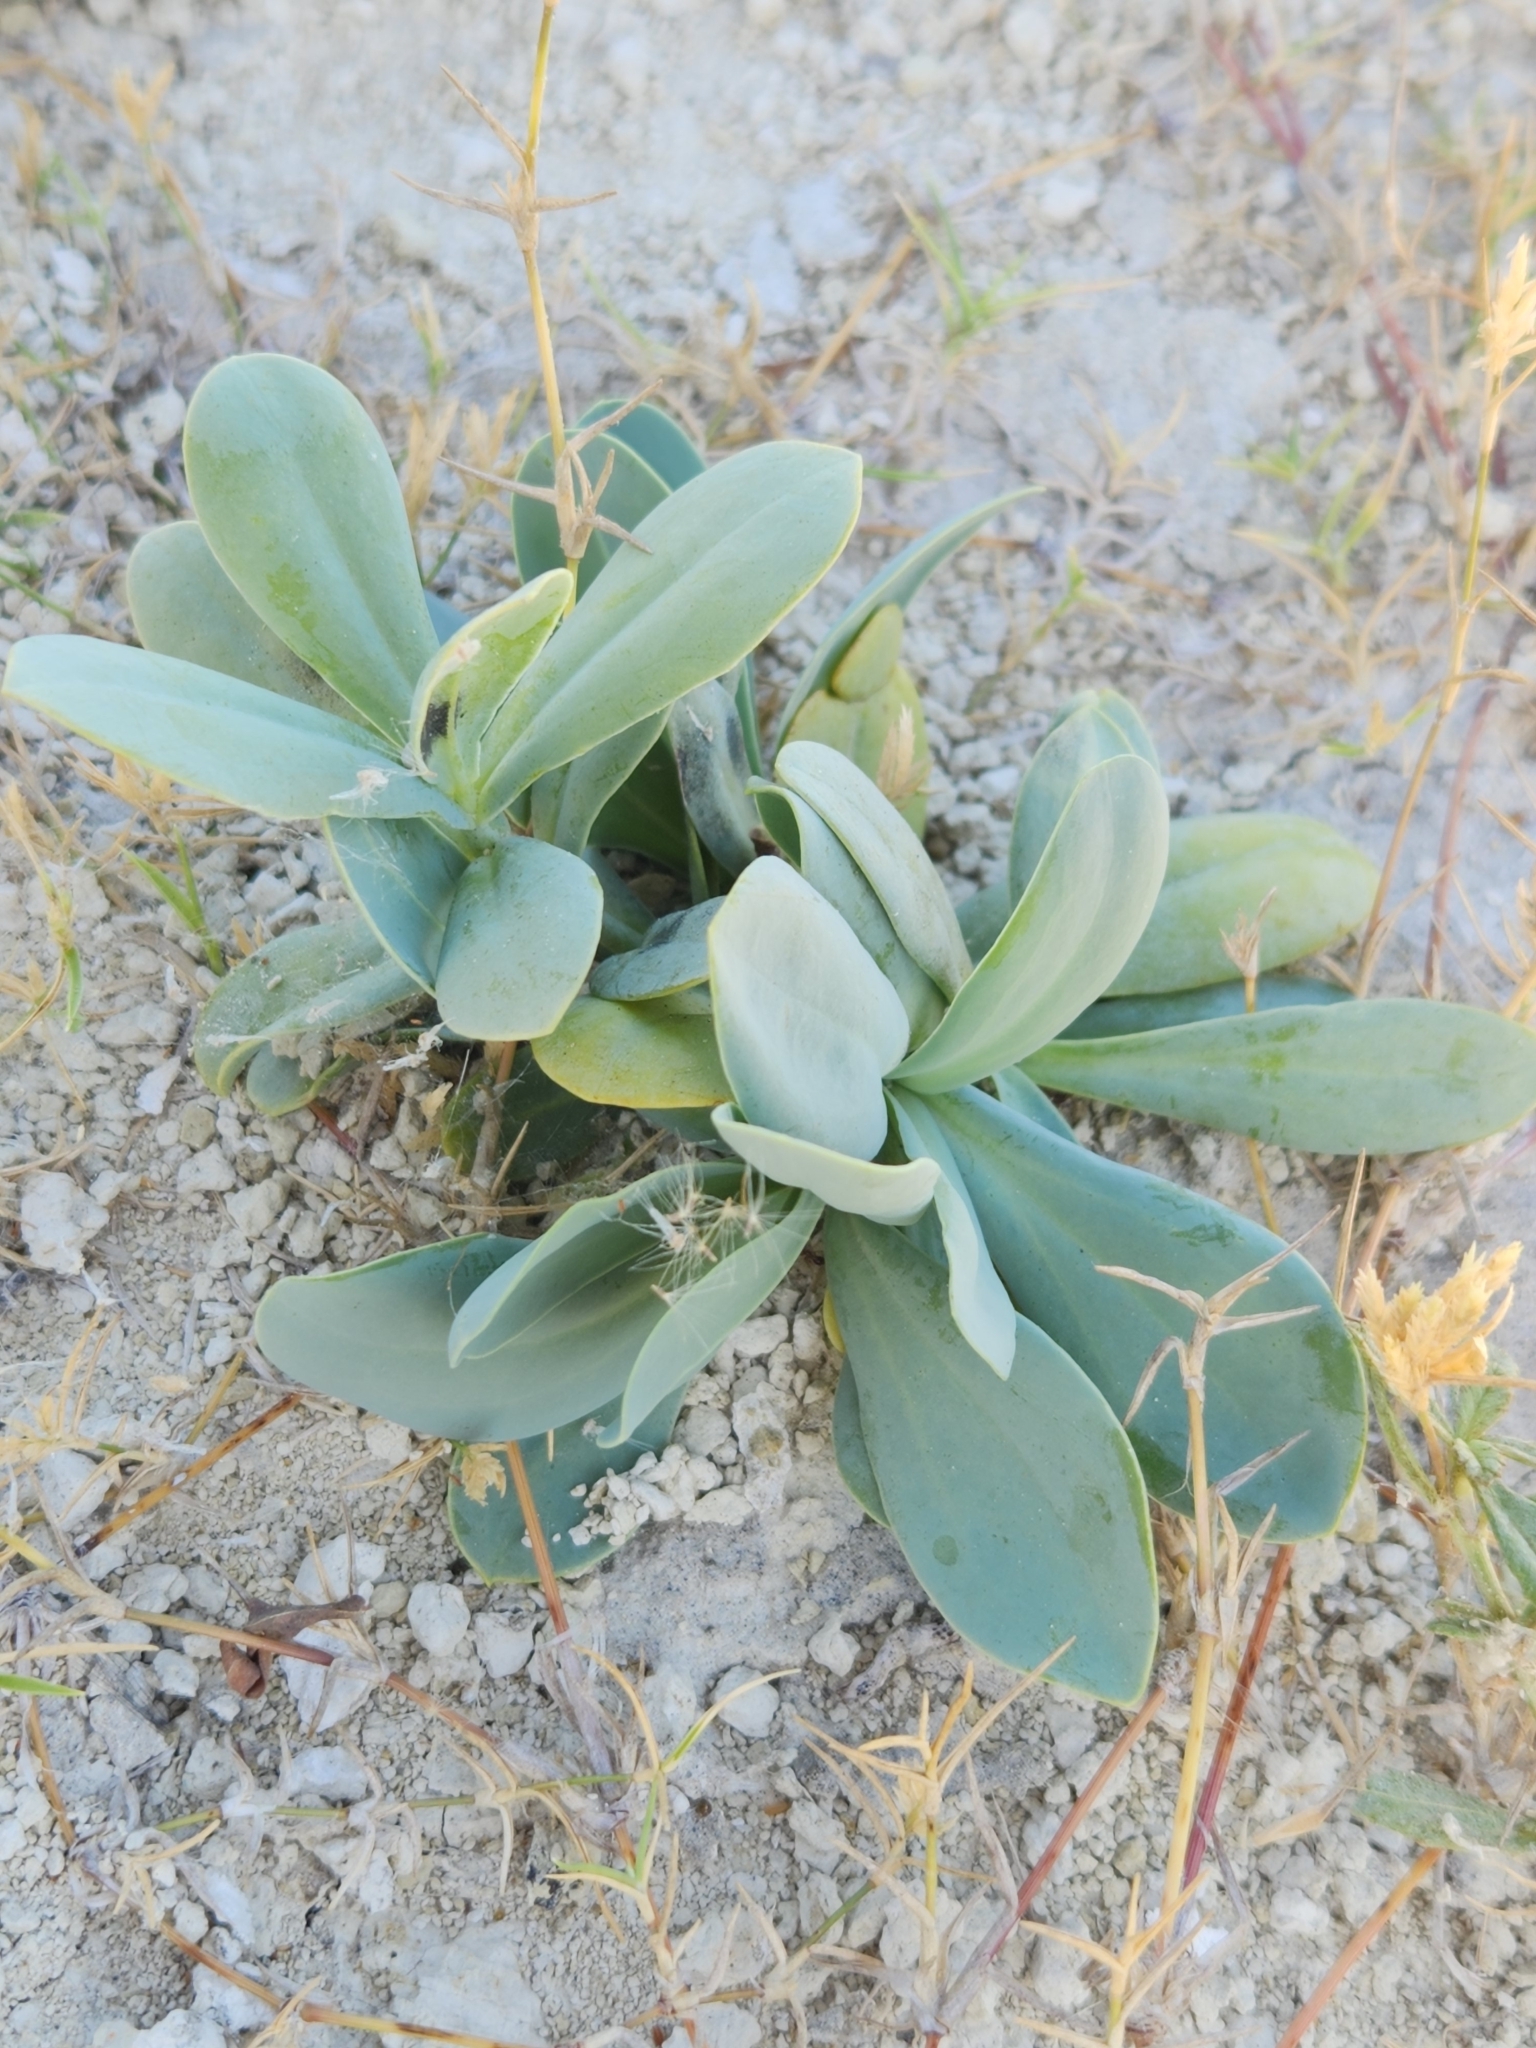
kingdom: Plantae
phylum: Tracheophyta
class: Magnoliopsida
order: Gentianales
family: Gentianaceae
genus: Eustoma
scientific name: Eustoma exaltatum
